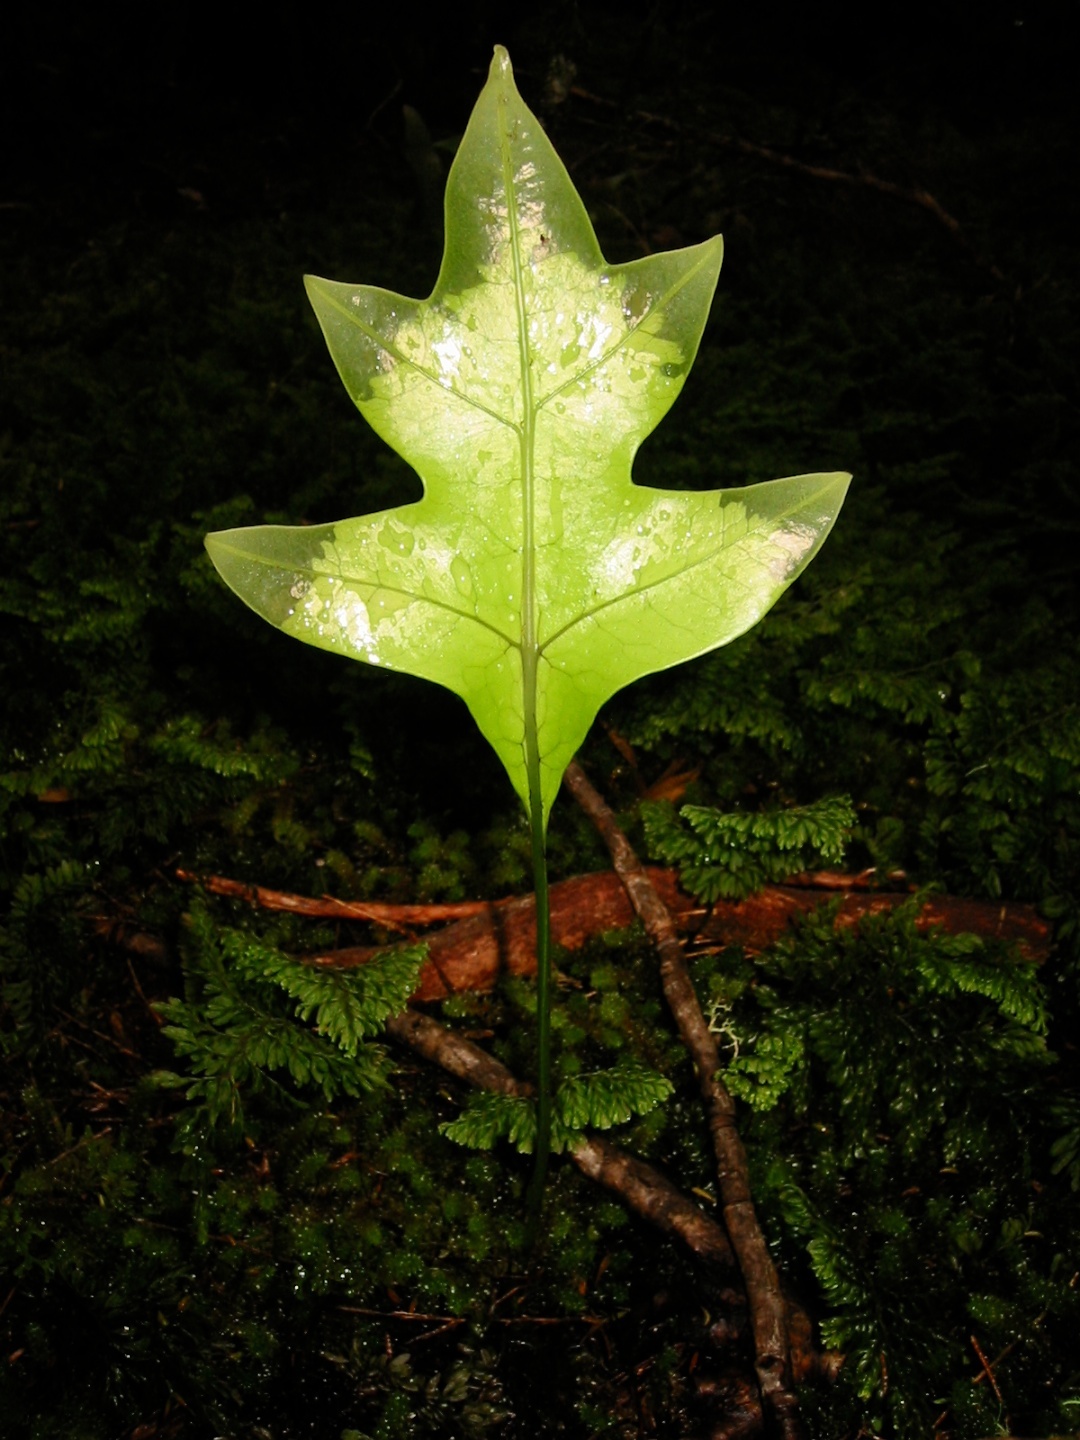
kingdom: Plantae
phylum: Tracheophyta
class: Polypodiopsida
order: Polypodiales
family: Polypodiaceae
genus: Lecanopteris
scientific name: Lecanopteris pustulata
